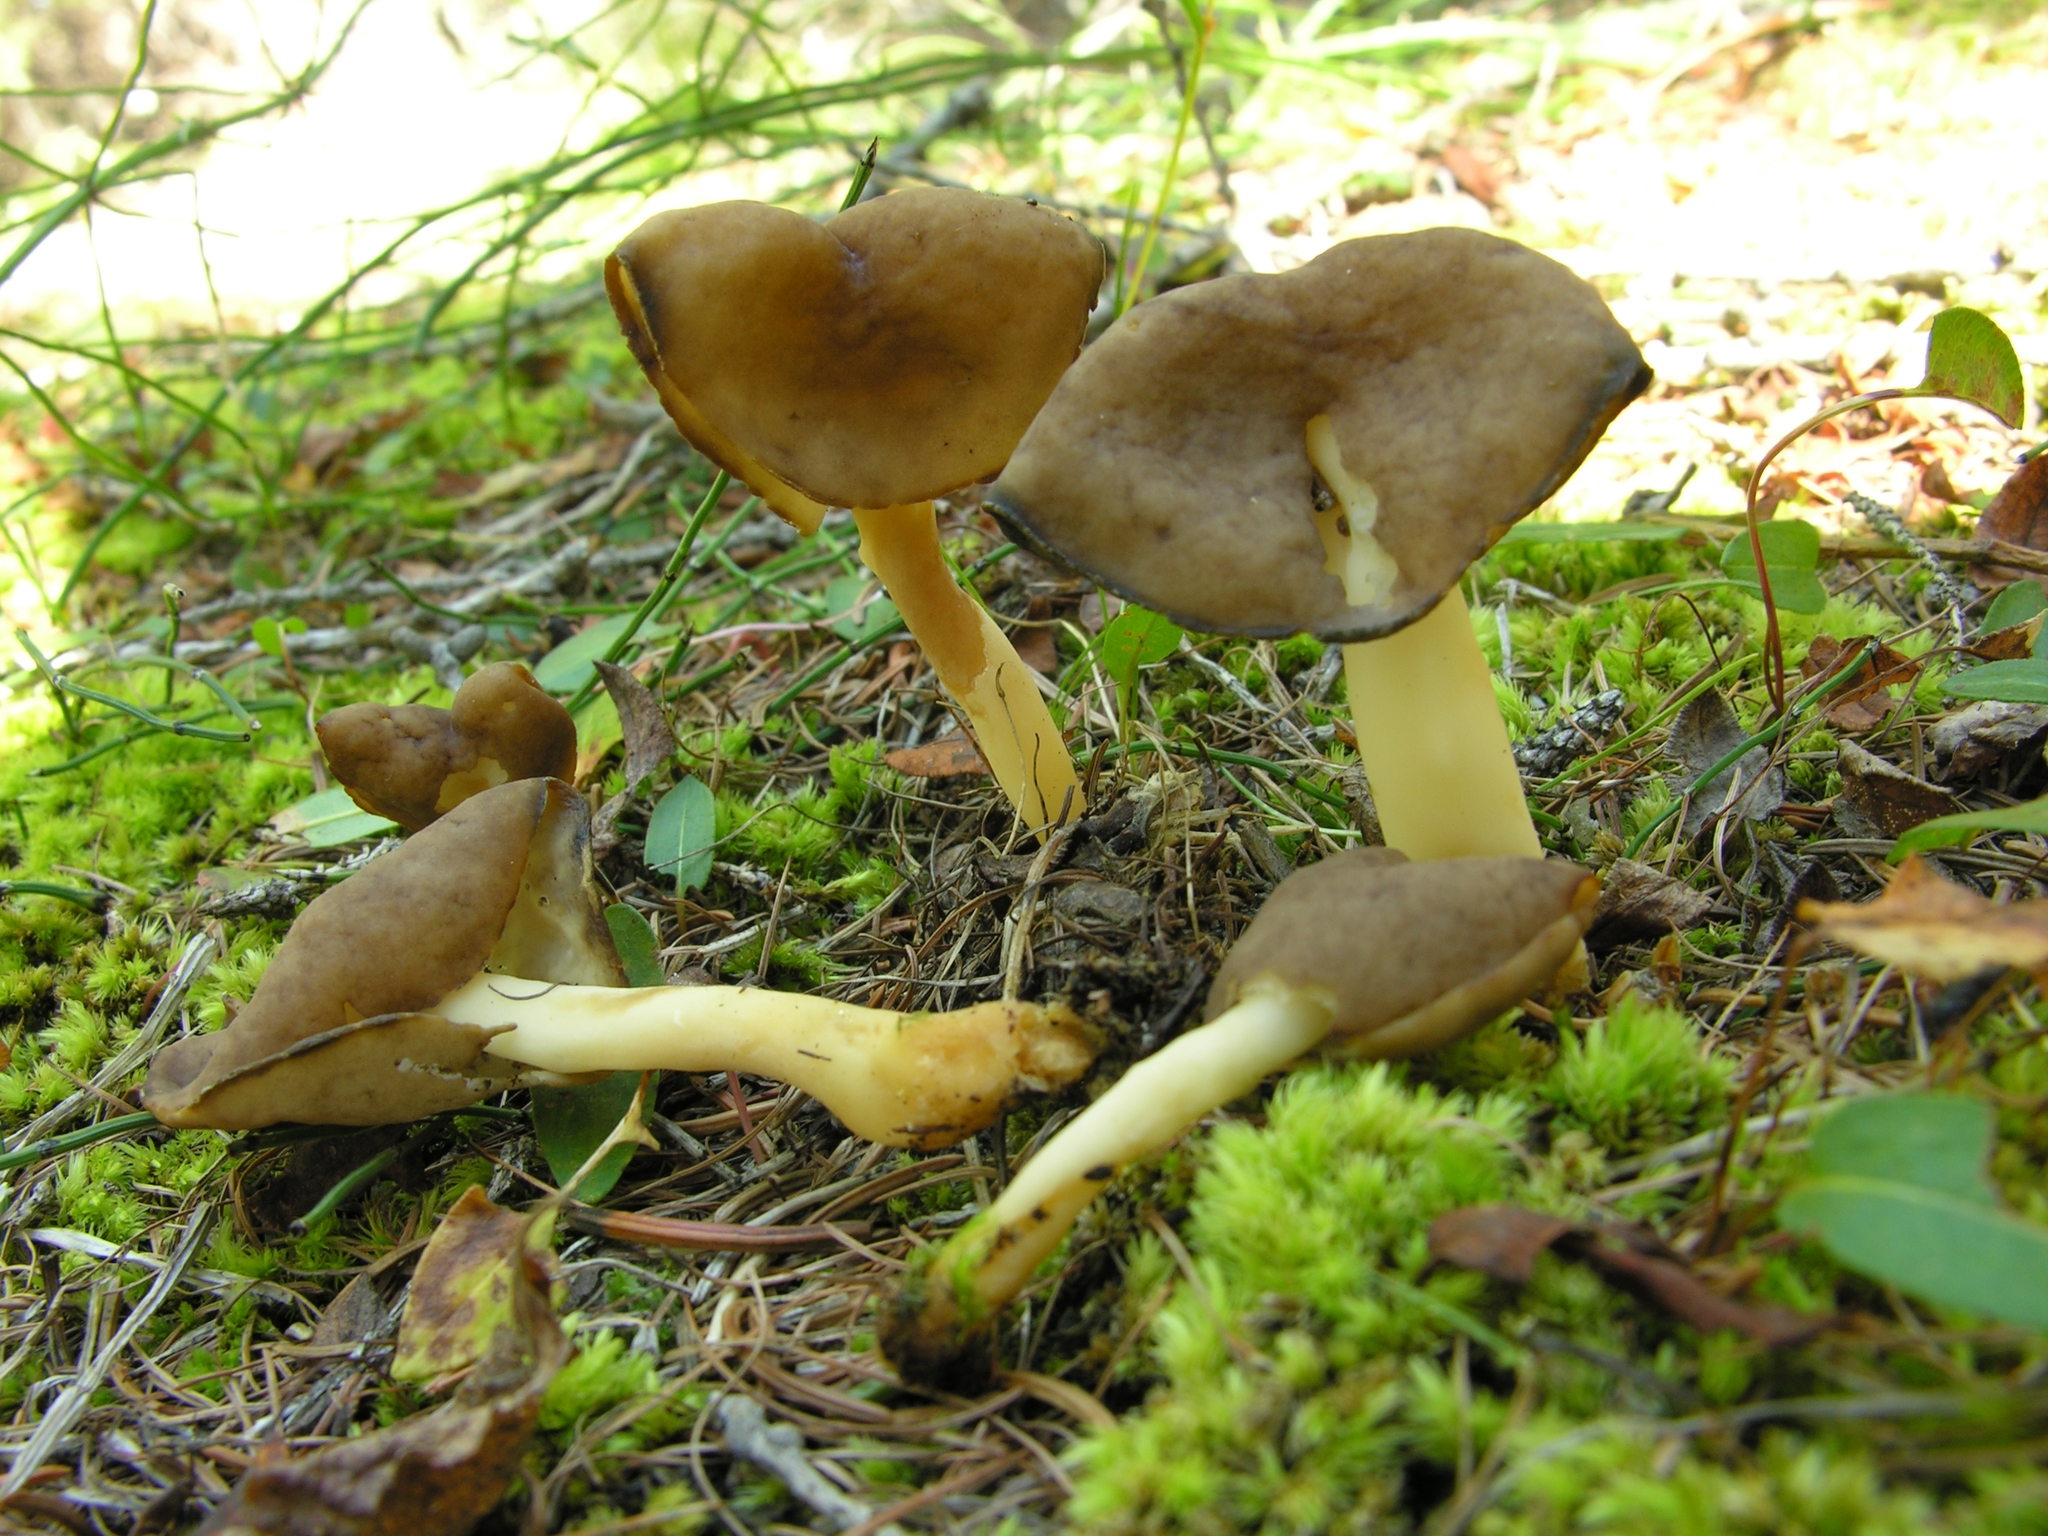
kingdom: Fungi
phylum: Ascomycota
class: Pezizomycetes
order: Pezizales
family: Helvellaceae
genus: Helvella
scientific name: Helvella elastica
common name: Elastic saddle
